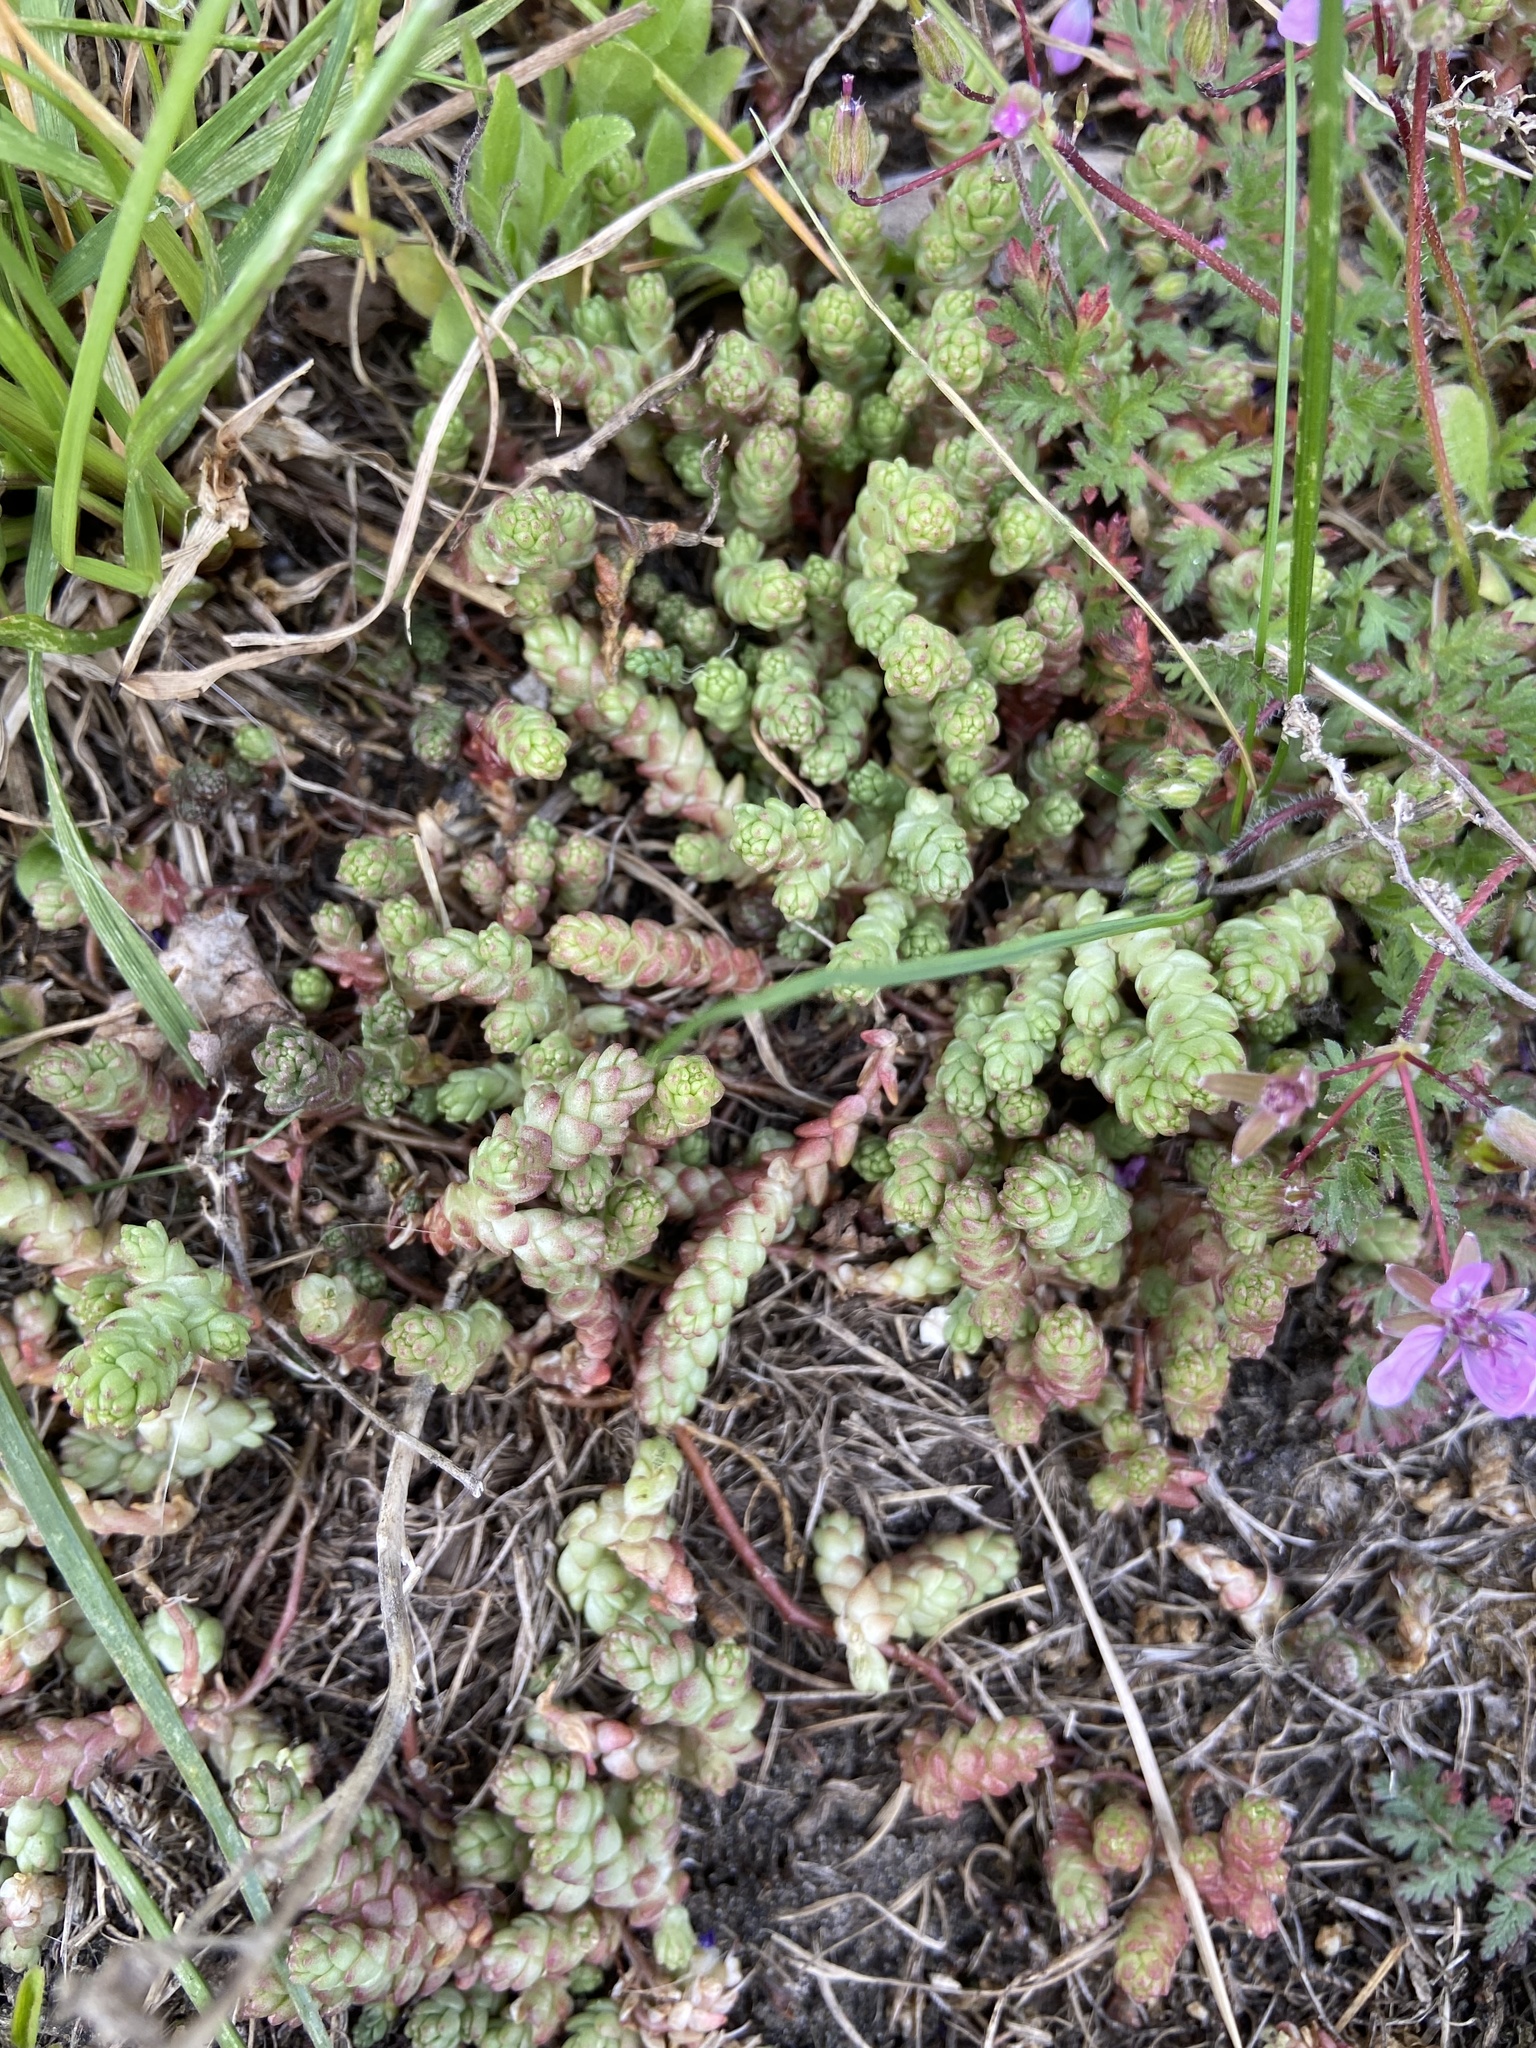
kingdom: Plantae
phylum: Tracheophyta
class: Magnoliopsida
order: Saxifragales
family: Crassulaceae
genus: Sedum
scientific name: Sedum acre
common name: Biting stonecrop
